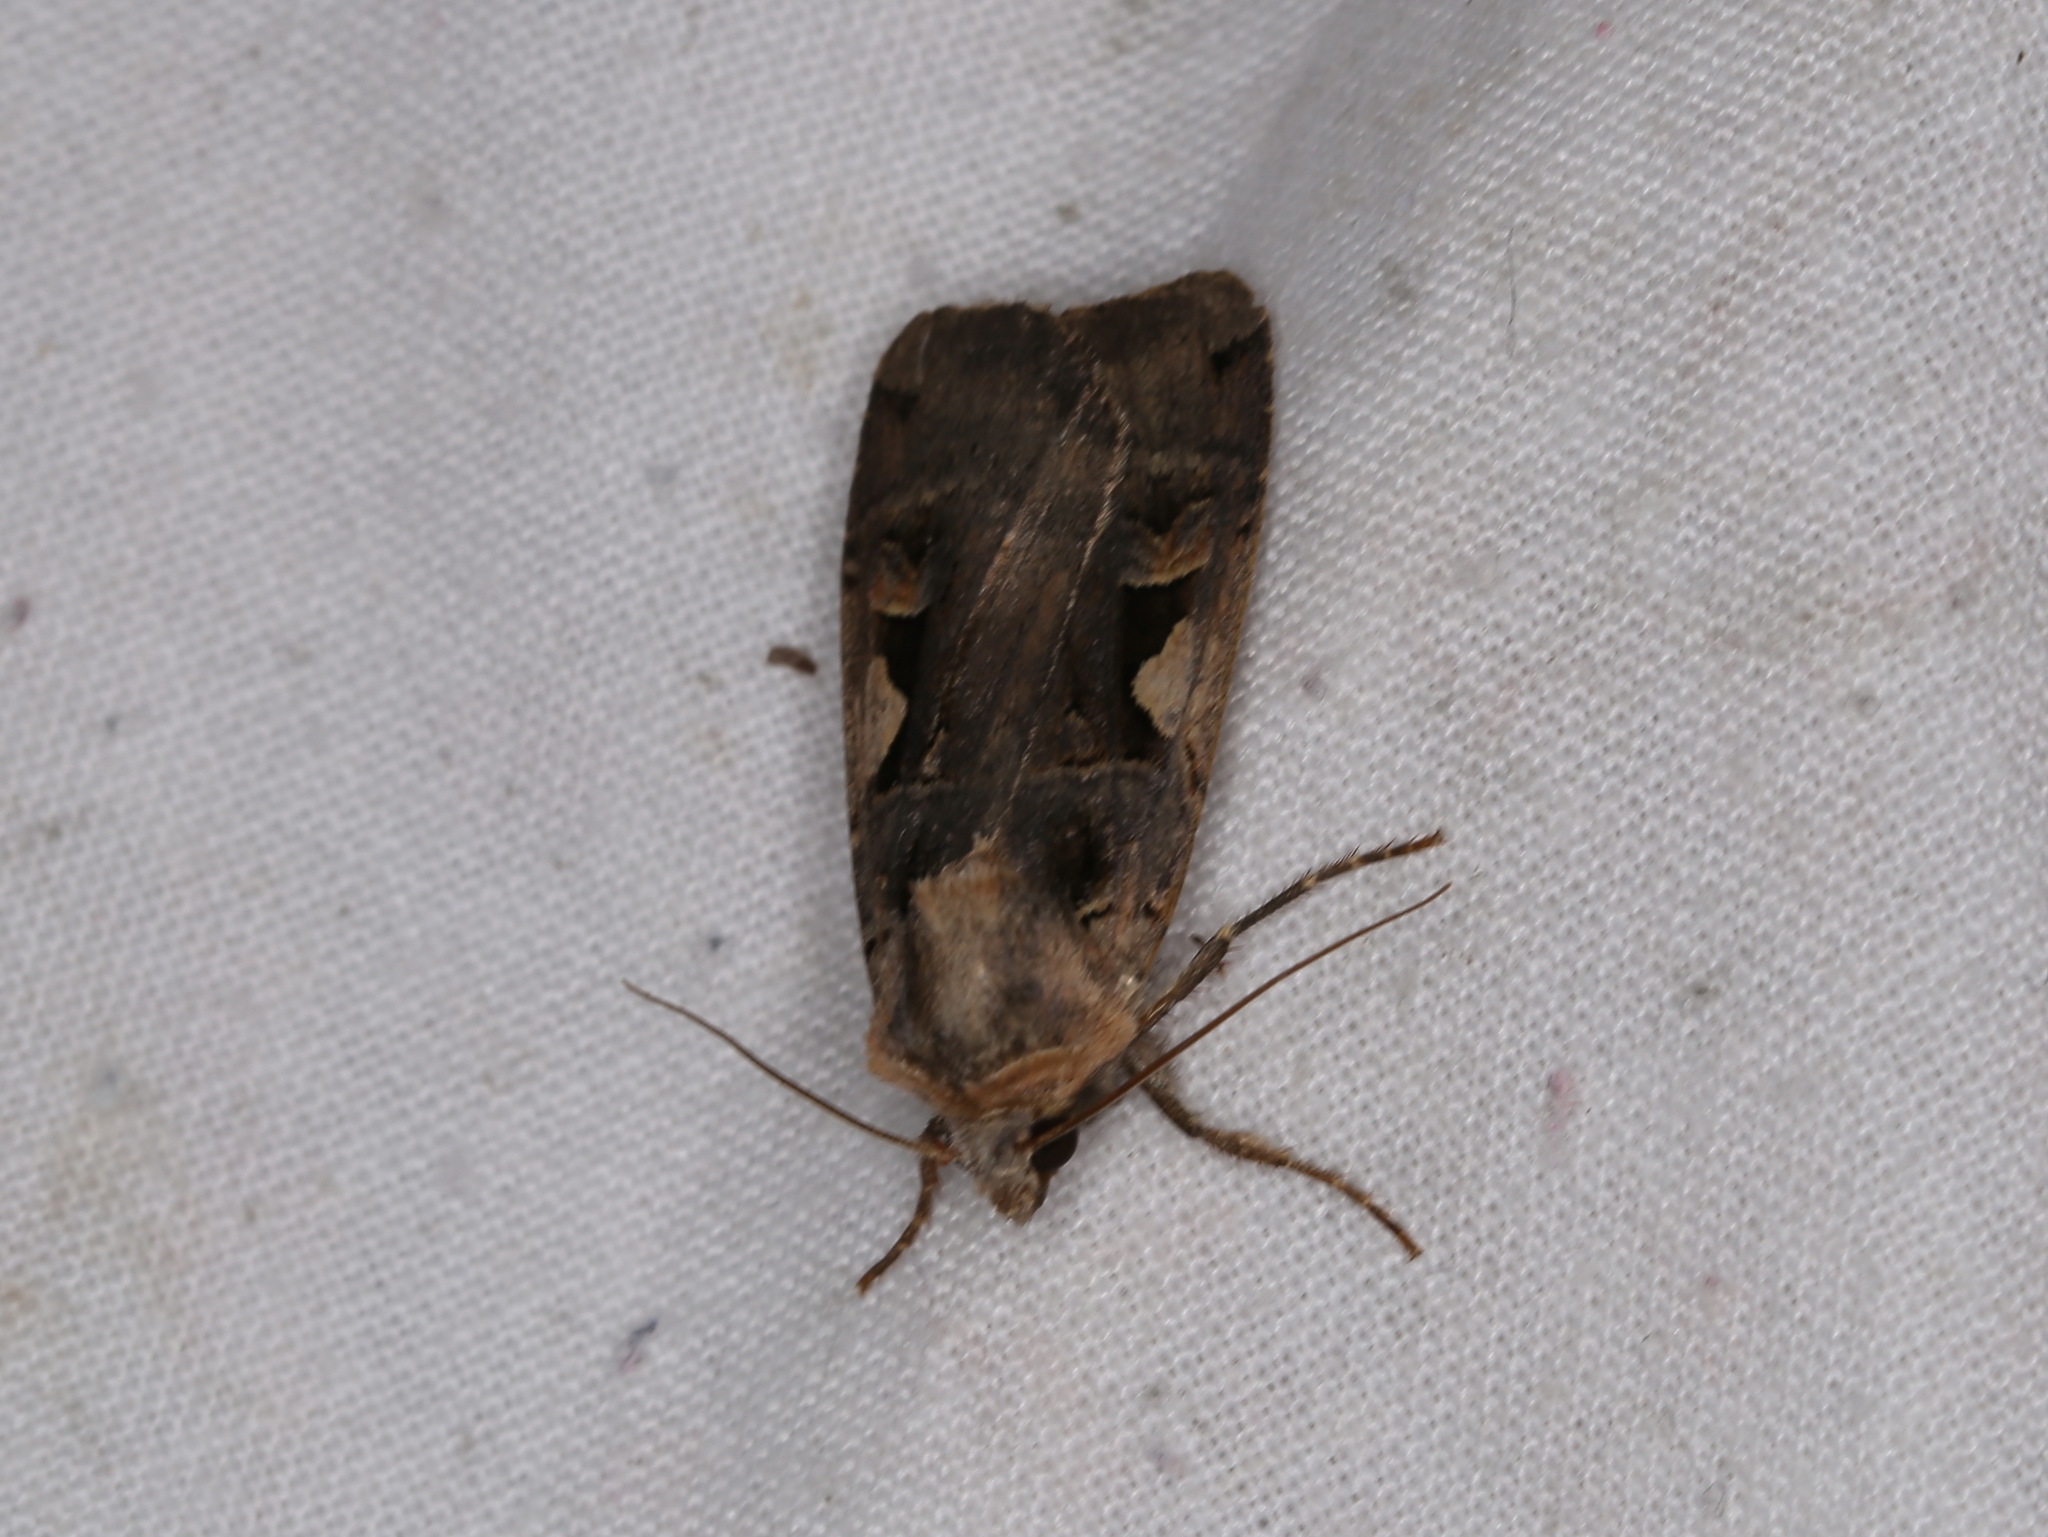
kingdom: Animalia
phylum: Arthropoda
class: Insecta
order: Lepidoptera
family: Noctuidae
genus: Xestia
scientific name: Xestia c-nigrum
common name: Setaceous hebrew character
